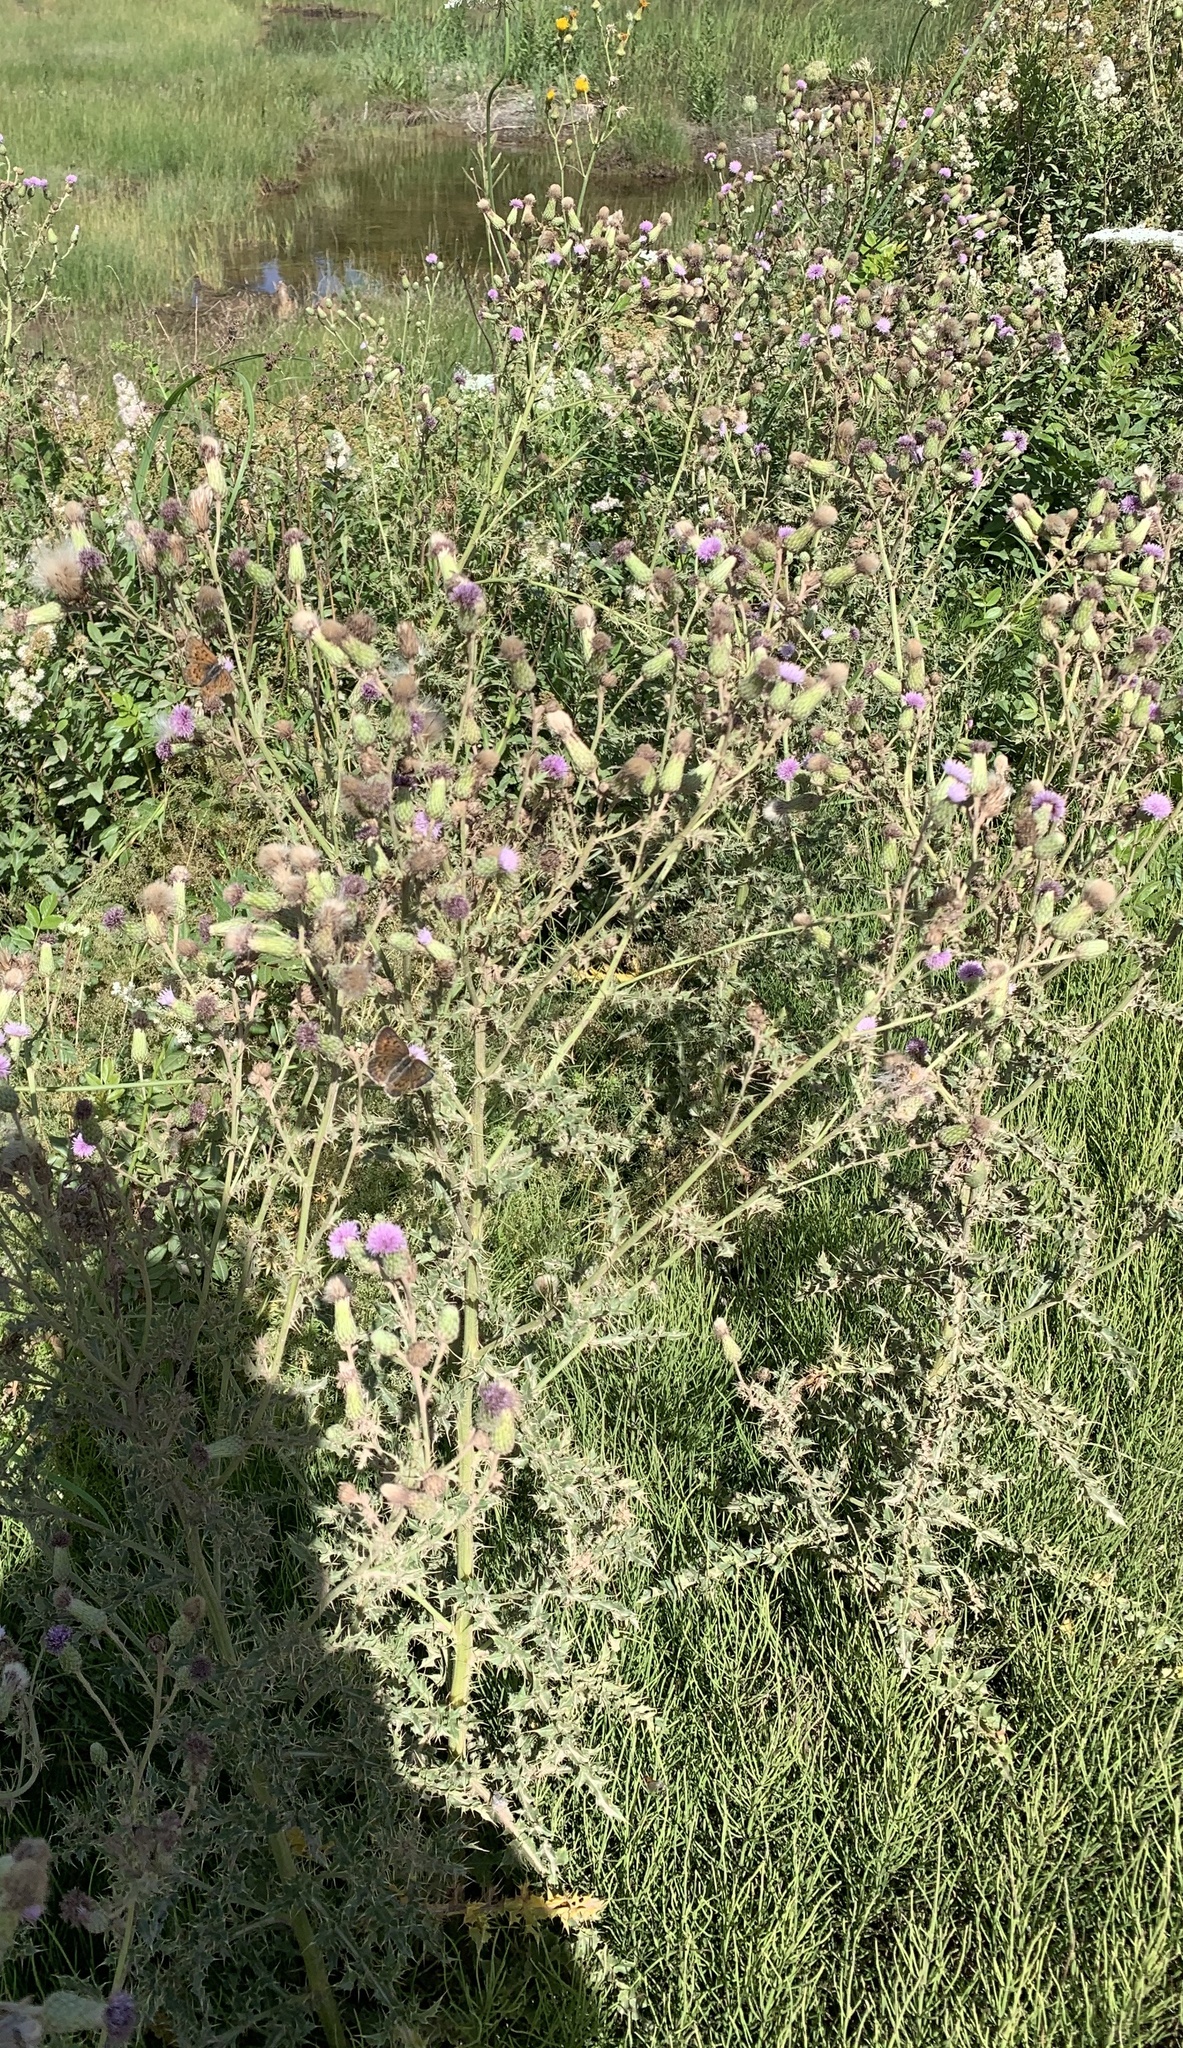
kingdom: Plantae
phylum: Tracheophyta
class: Magnoliopsida
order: Asterales
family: Asteraceae
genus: Cirsium
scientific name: Cirsium arvense
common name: Creeping thistle
